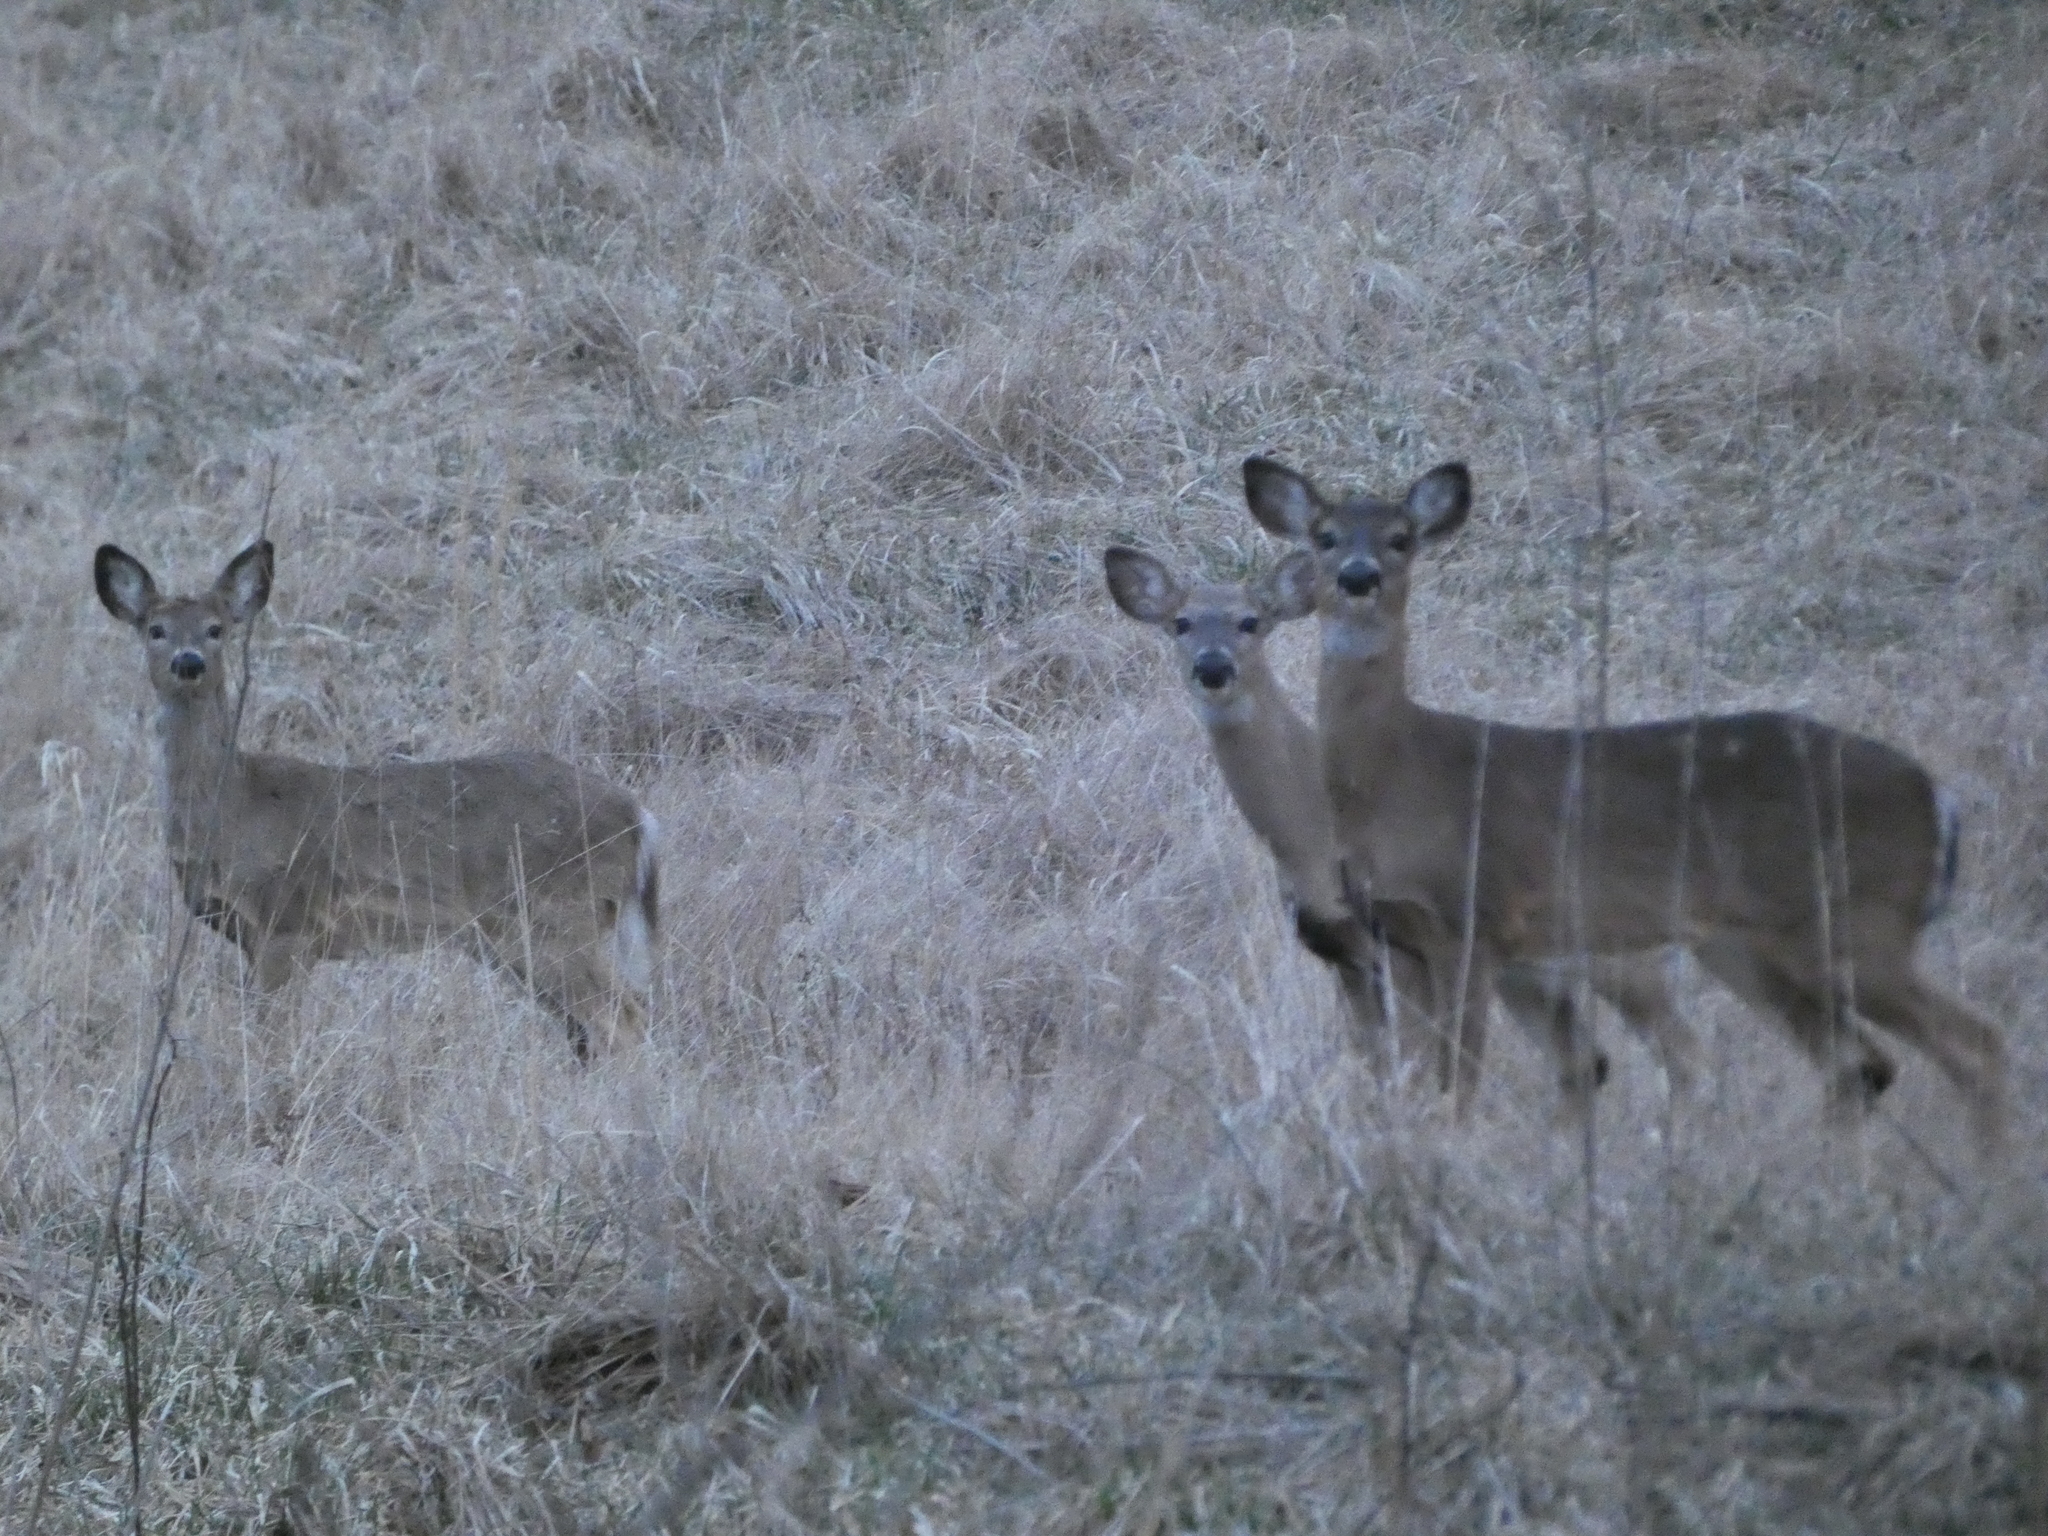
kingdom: Animalia
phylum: Chordata
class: Mammalia
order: Artiodactyla
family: Cervidae
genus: Odocoileus
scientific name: Odocoileus virginianus
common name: White-tailed deer
